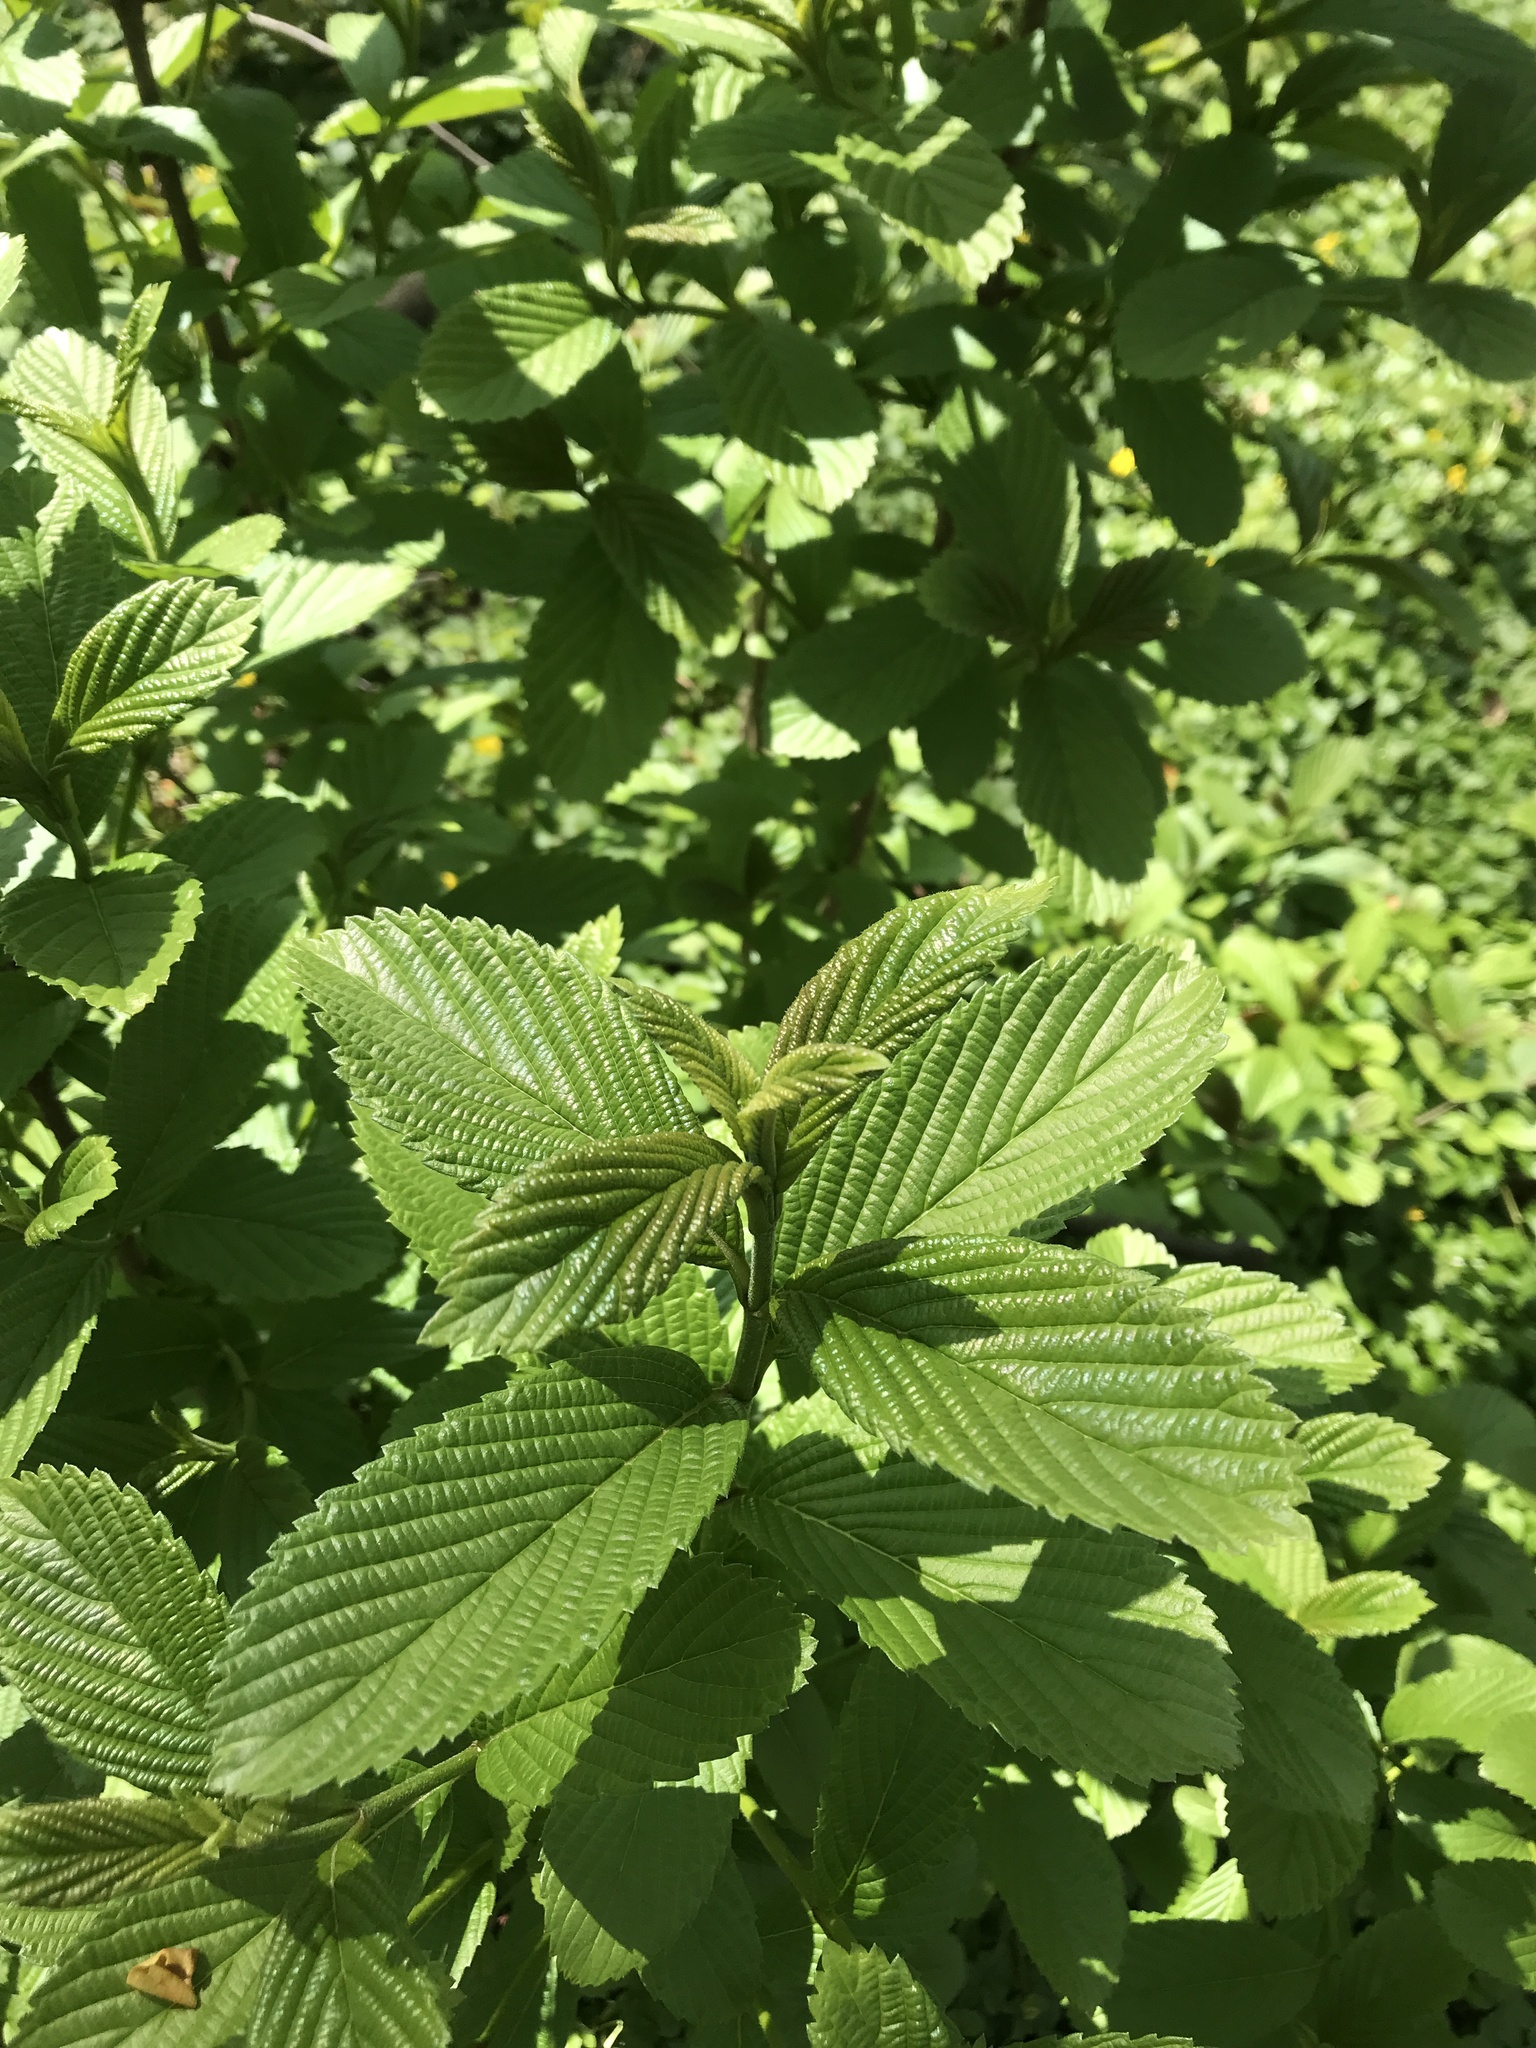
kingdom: Plantae
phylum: Tracheophyta
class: Magnoliopsida
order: Dipsacales
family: Viburnaceae
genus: Viburnum
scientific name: Viburnum sieboldii
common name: Siebold's arrowwood
